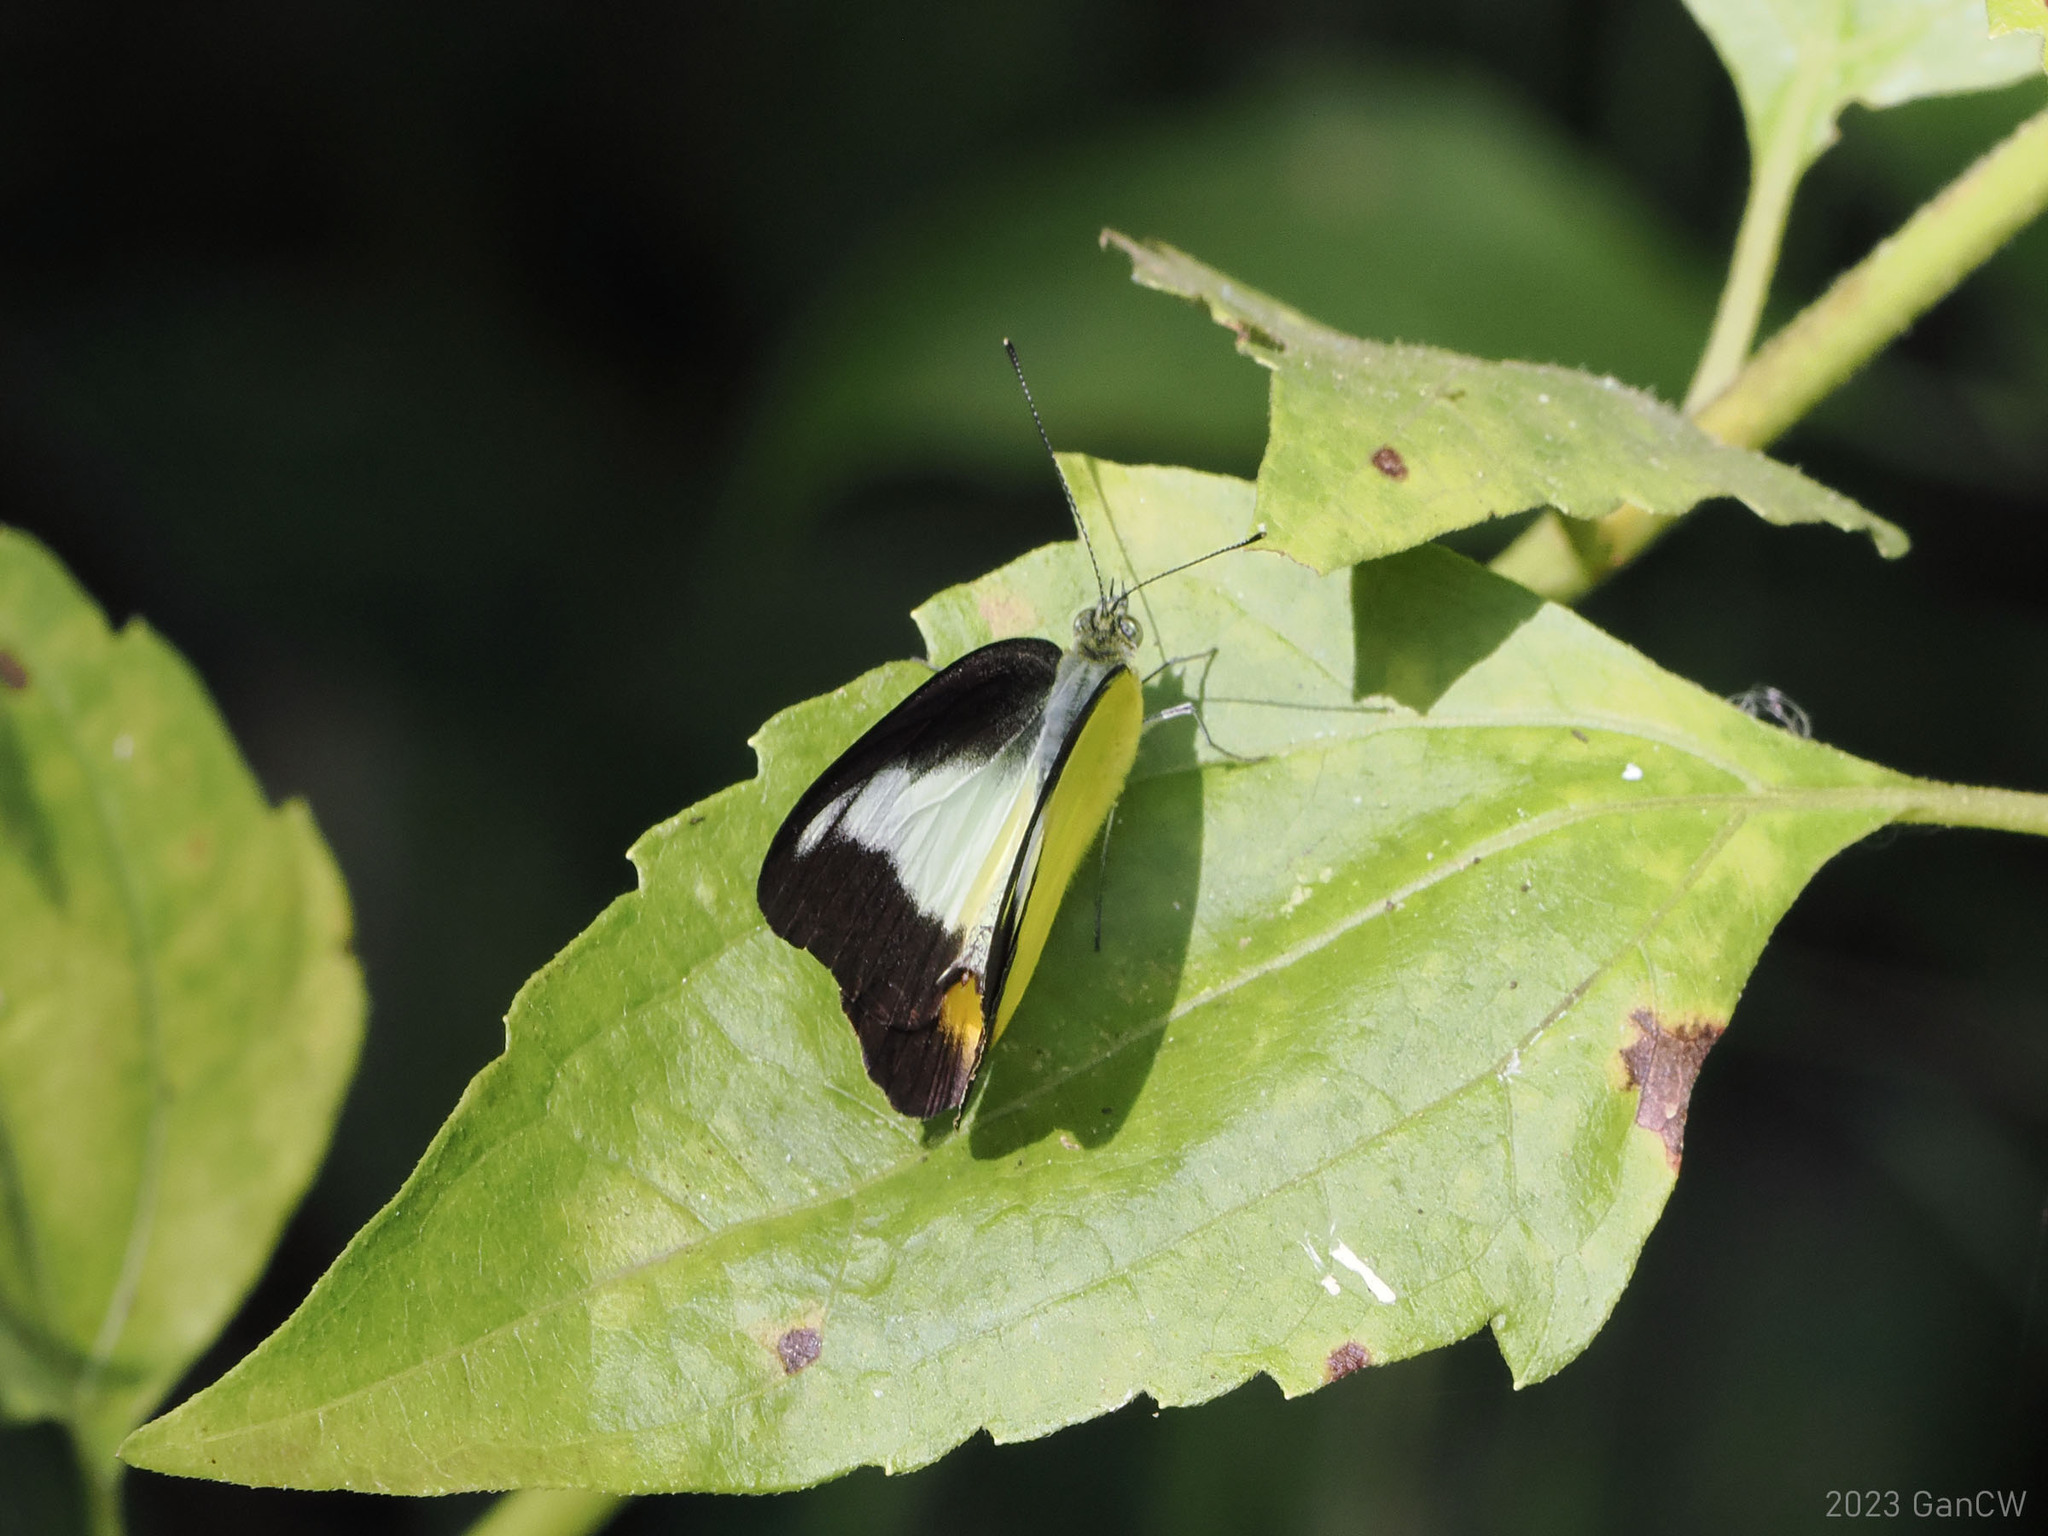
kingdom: Animalia
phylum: Arthropoda
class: Insecta
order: Lepidoptera
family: Pieridae
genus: Appias
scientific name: Appias nephele
